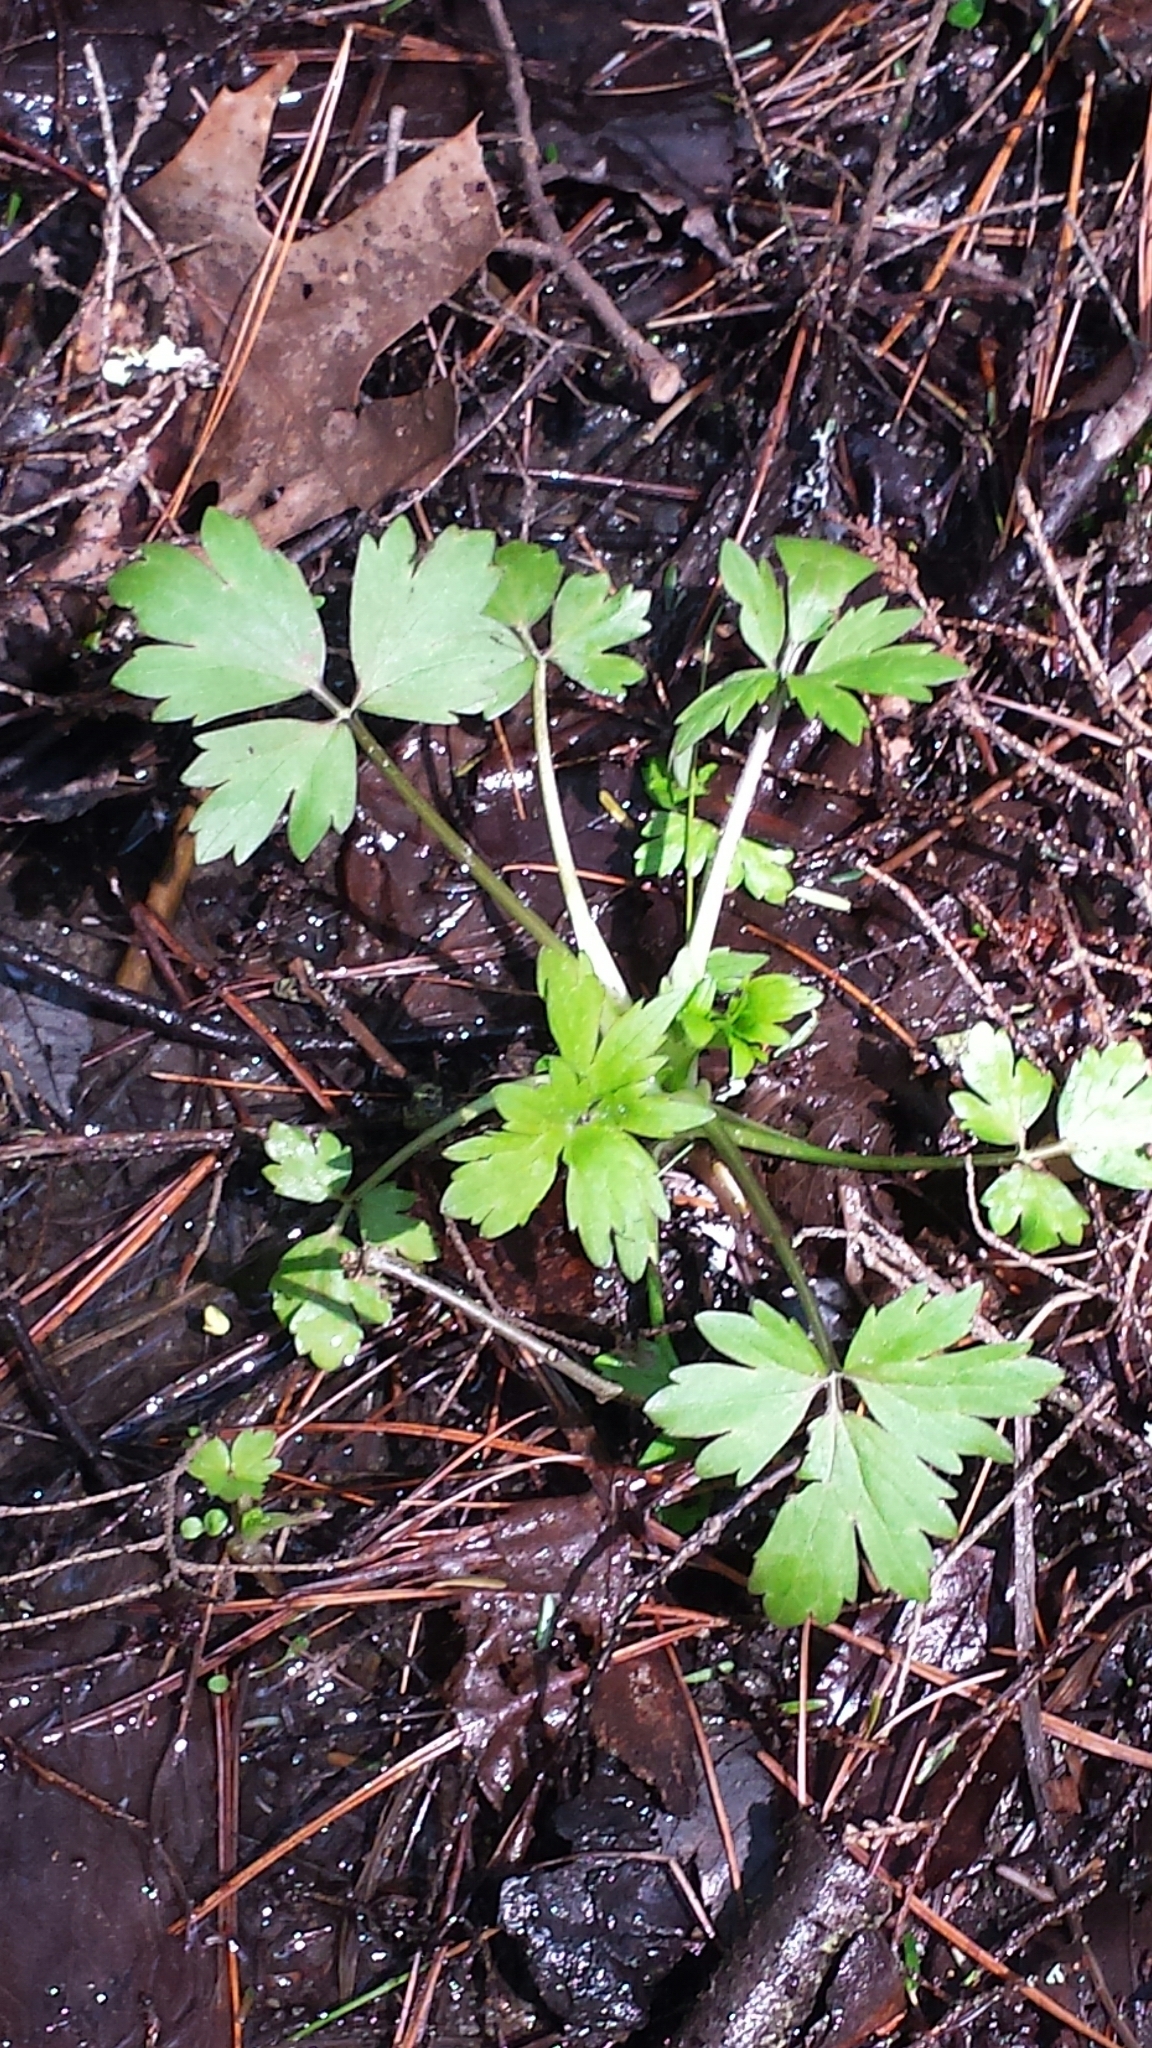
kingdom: Plantae
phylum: Tracheophyta
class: Magnoliopsida
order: Ranunculales
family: Ranunculaceae
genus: Ranunculus
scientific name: Ranunculus hispidus
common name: Bristly buttercup
